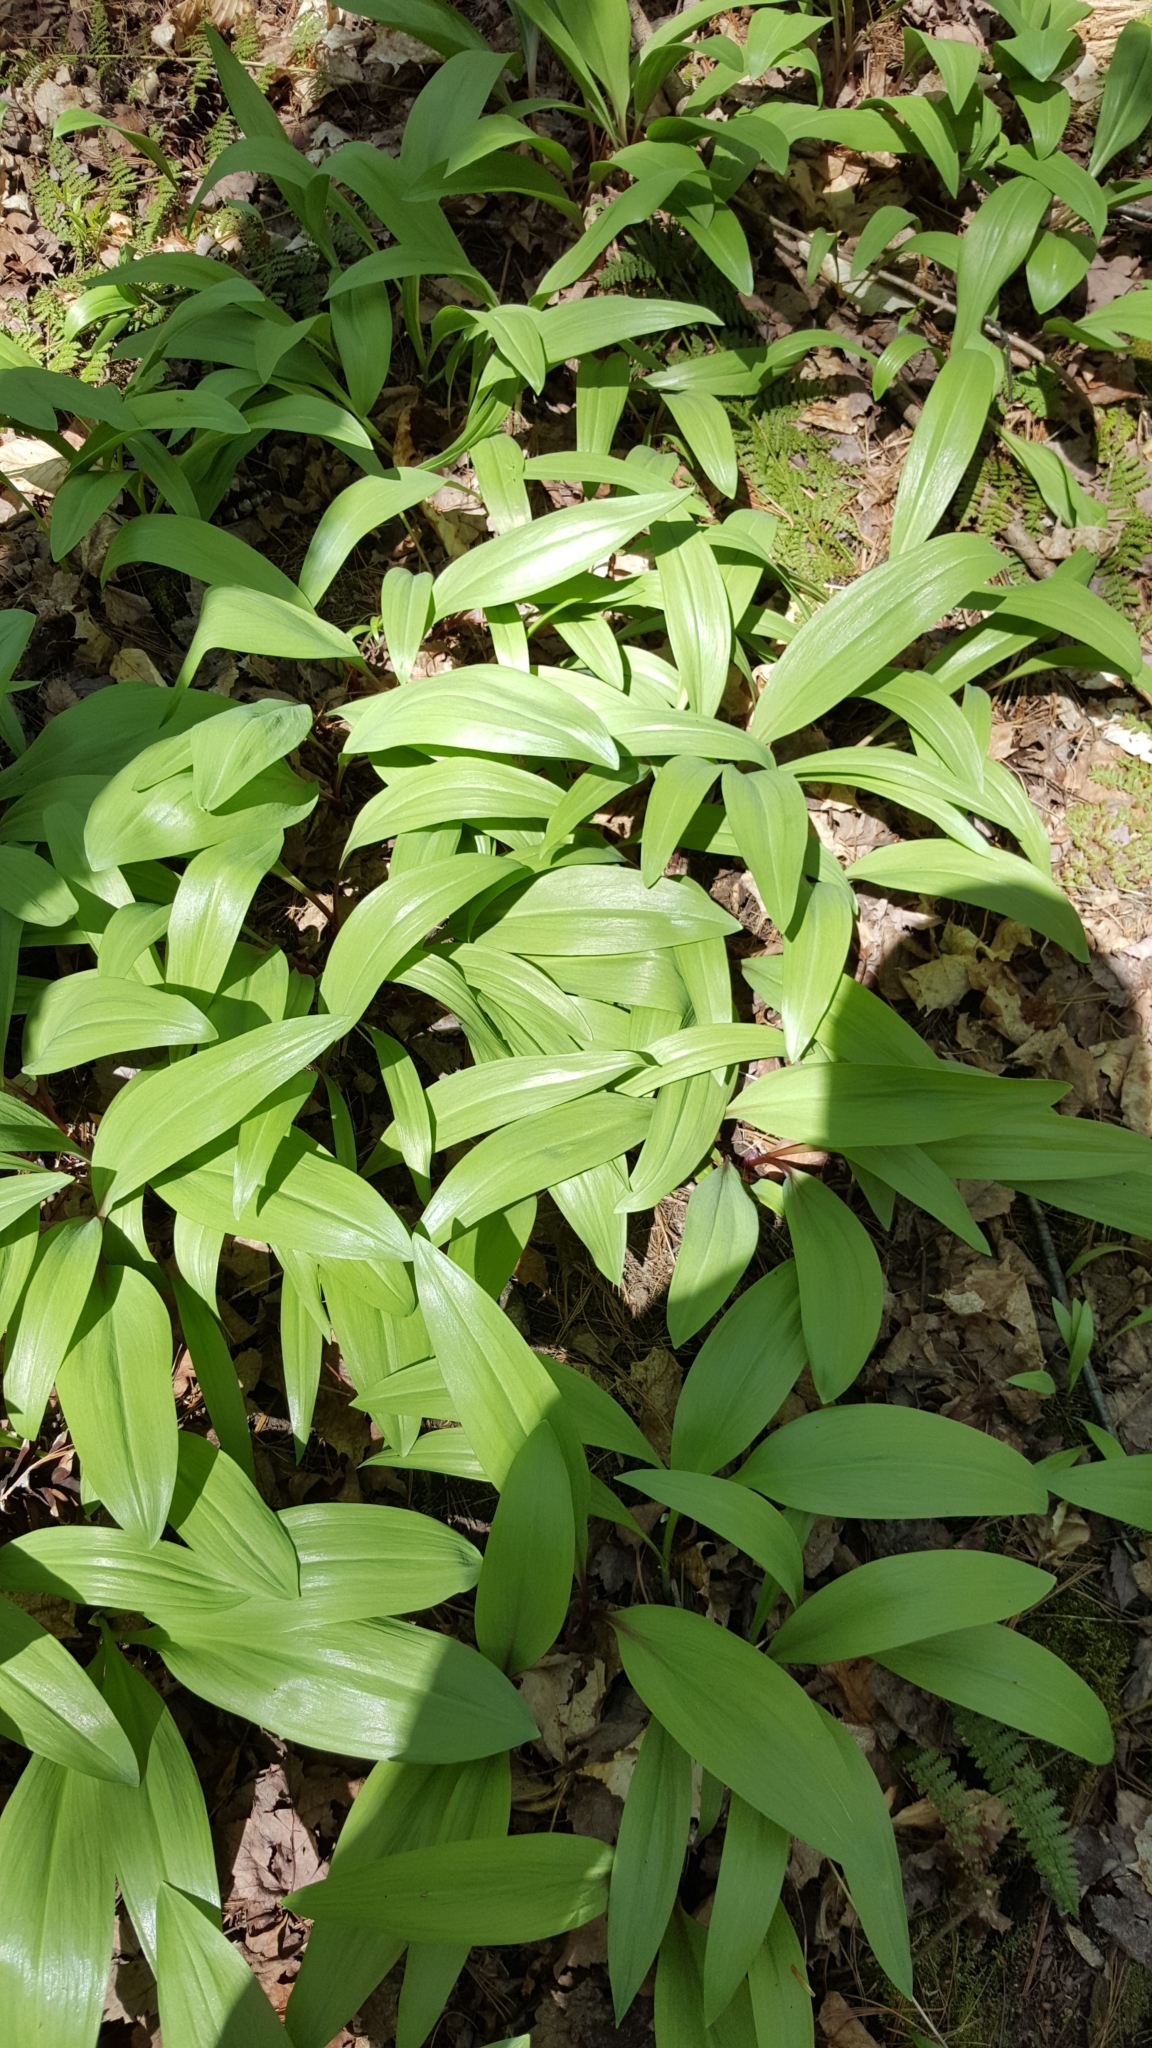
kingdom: Plantae
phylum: Tracheophyta
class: Liliopsida
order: Asparagales
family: Amaryllidaceae
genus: Allium
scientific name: Allium tricoccum
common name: Ramp
